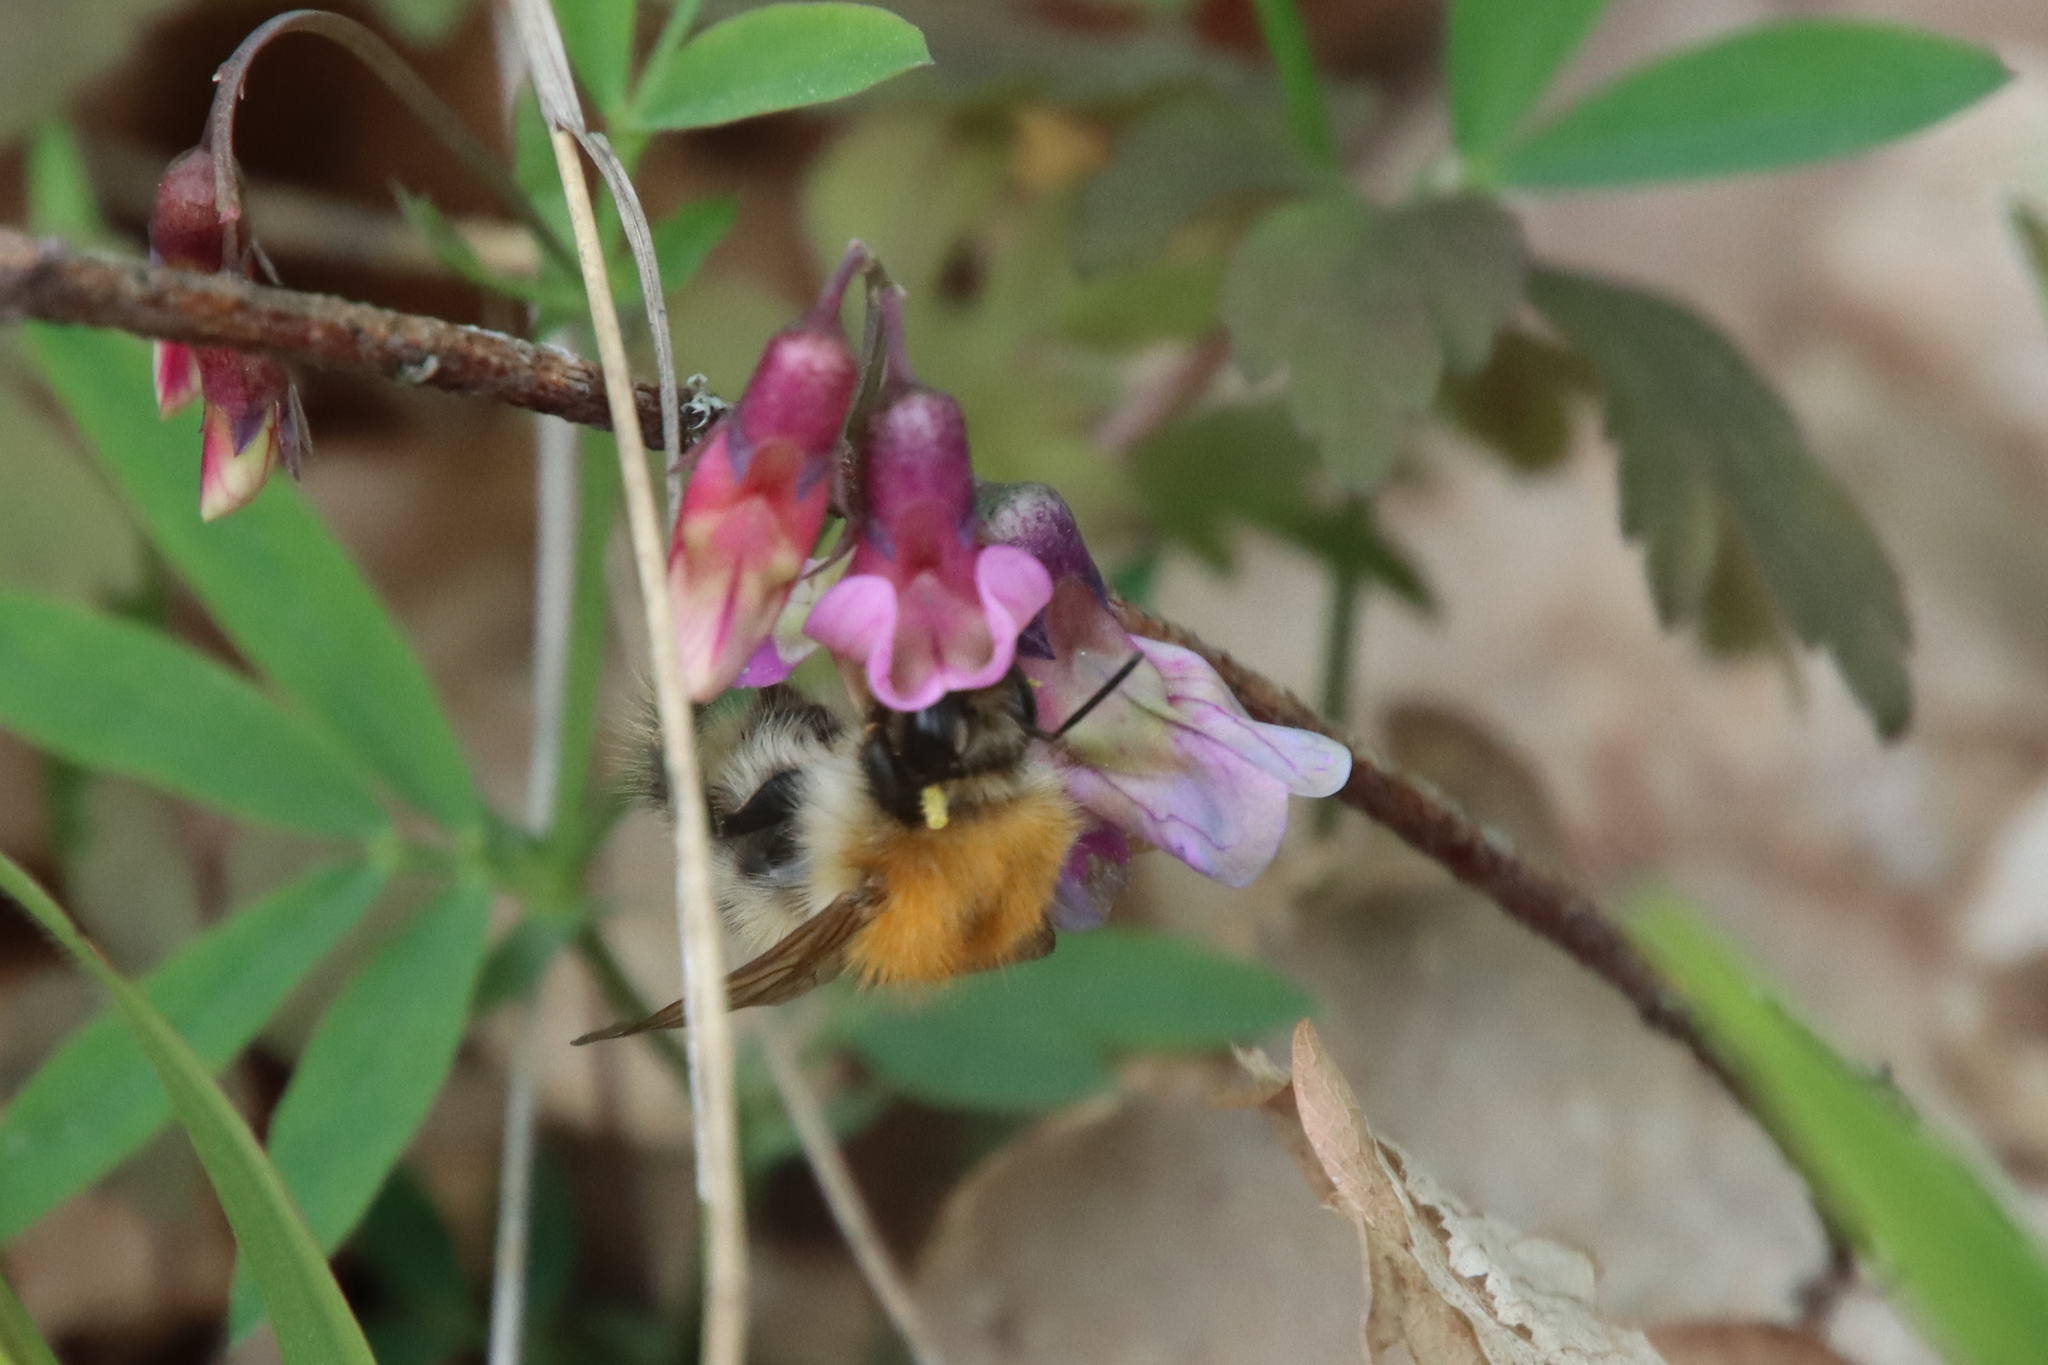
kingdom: Animalia
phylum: Arthropoda
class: Insecta
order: Hymenoptera
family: Apidae
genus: Bombus
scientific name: Bombus pascuorum
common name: Common carder bee
